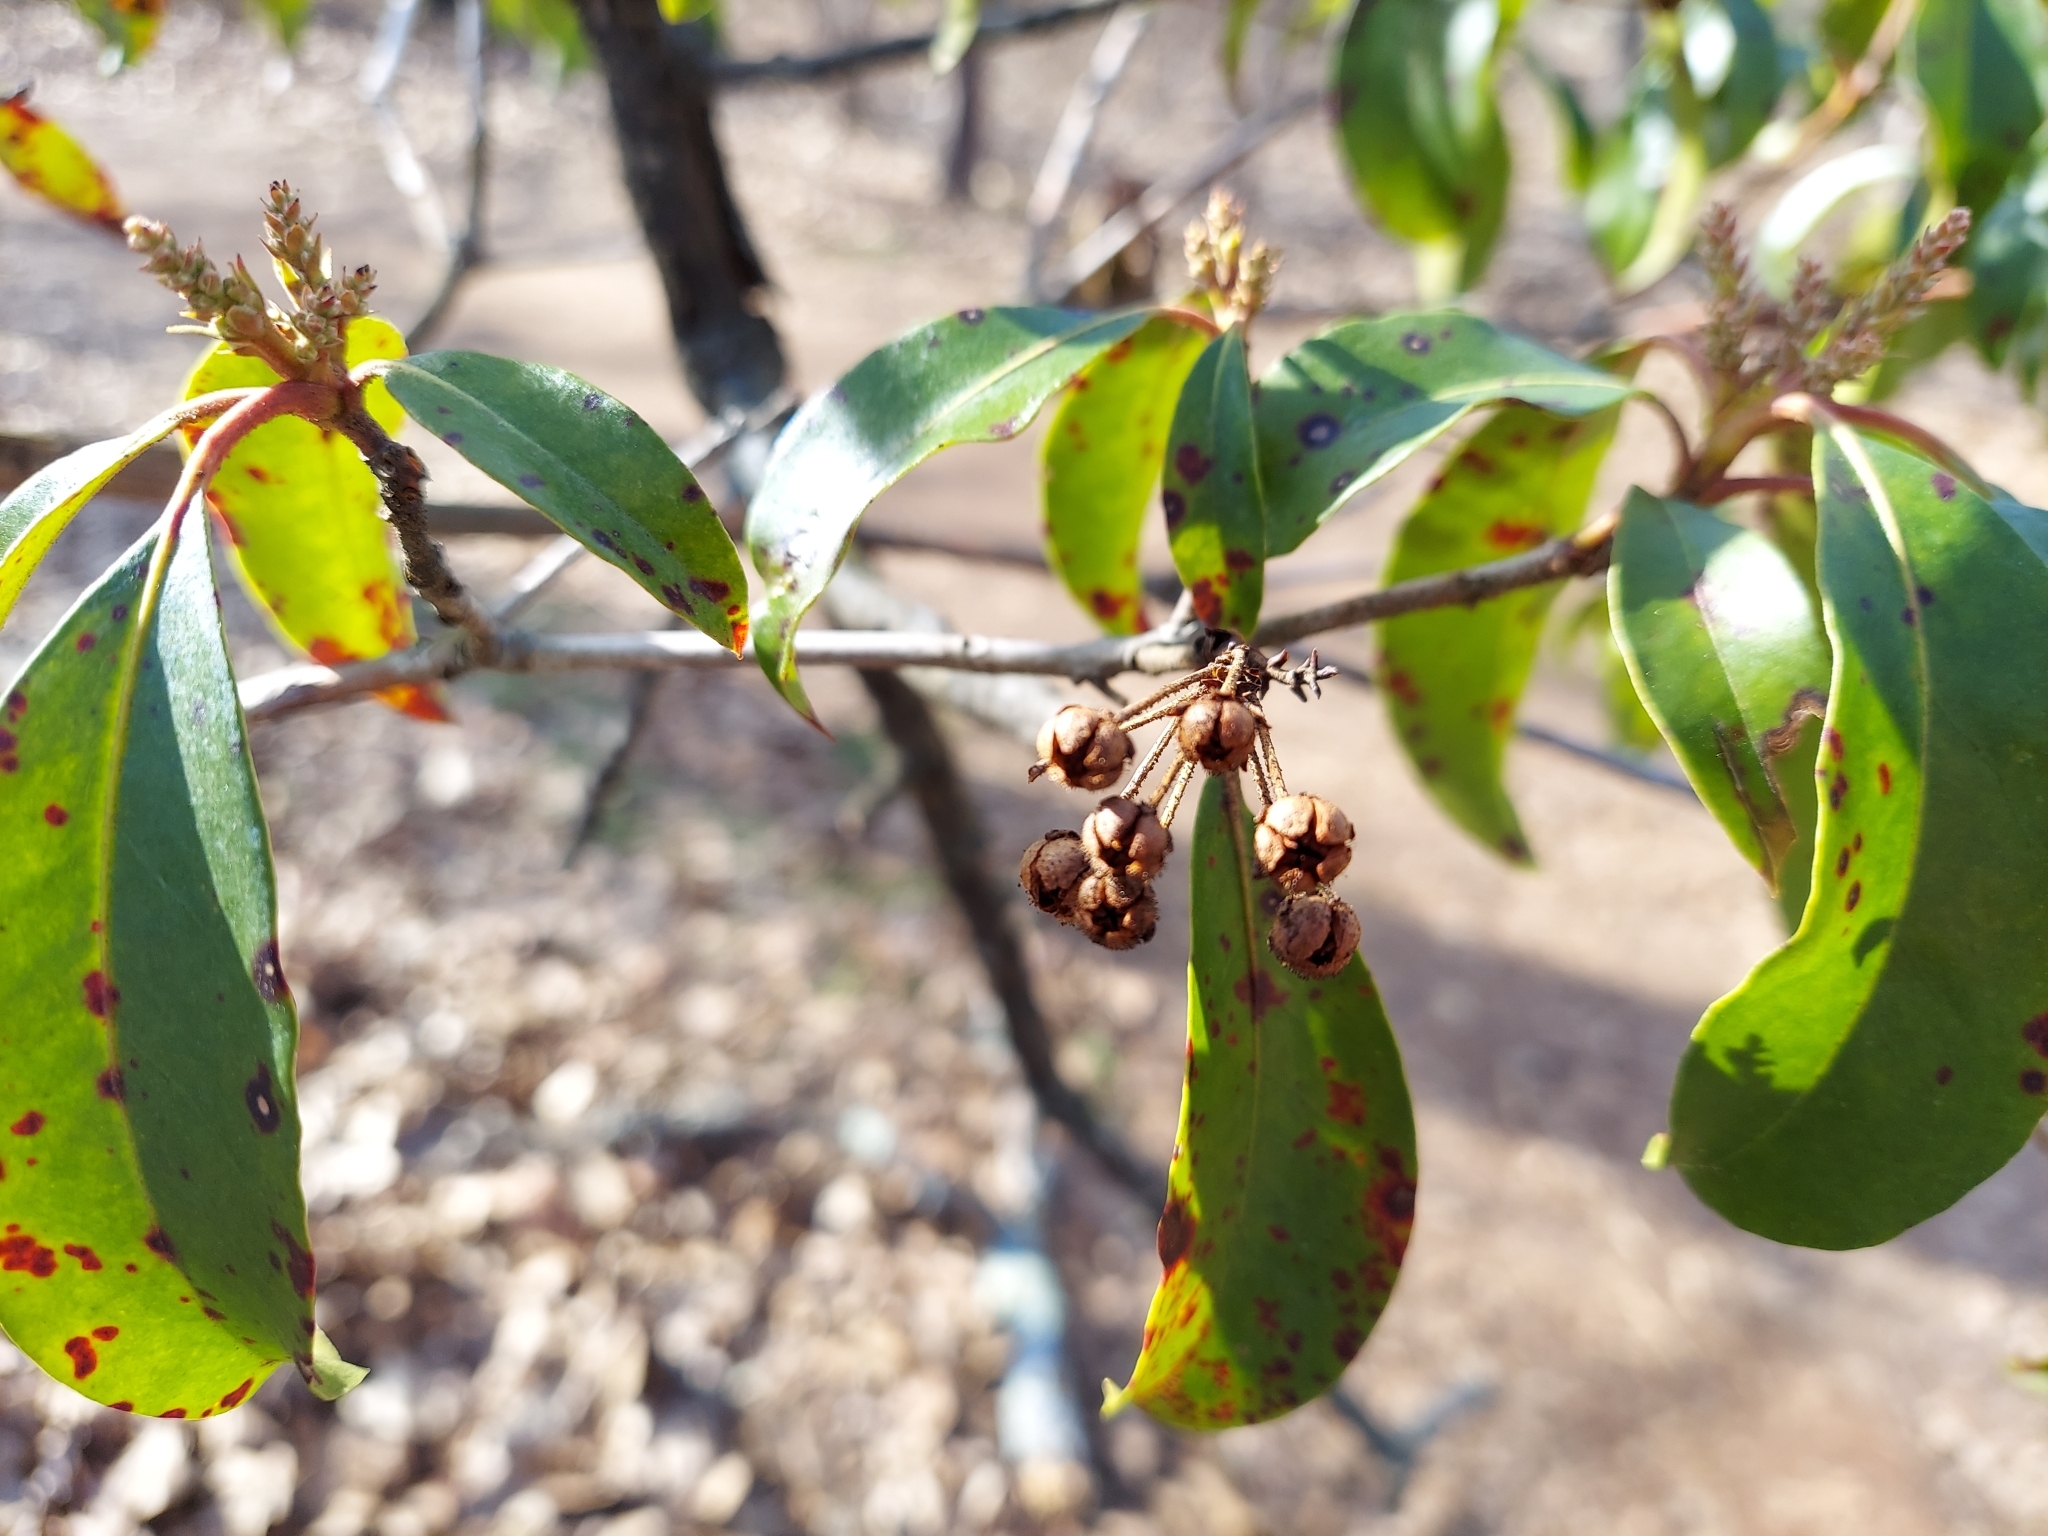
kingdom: Plantae
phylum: Tracheophyta
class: Magnoliopsida
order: Ericales
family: Ericaceae
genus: Kalmia
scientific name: Kalmia latifolia
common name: Mountain-laurel
